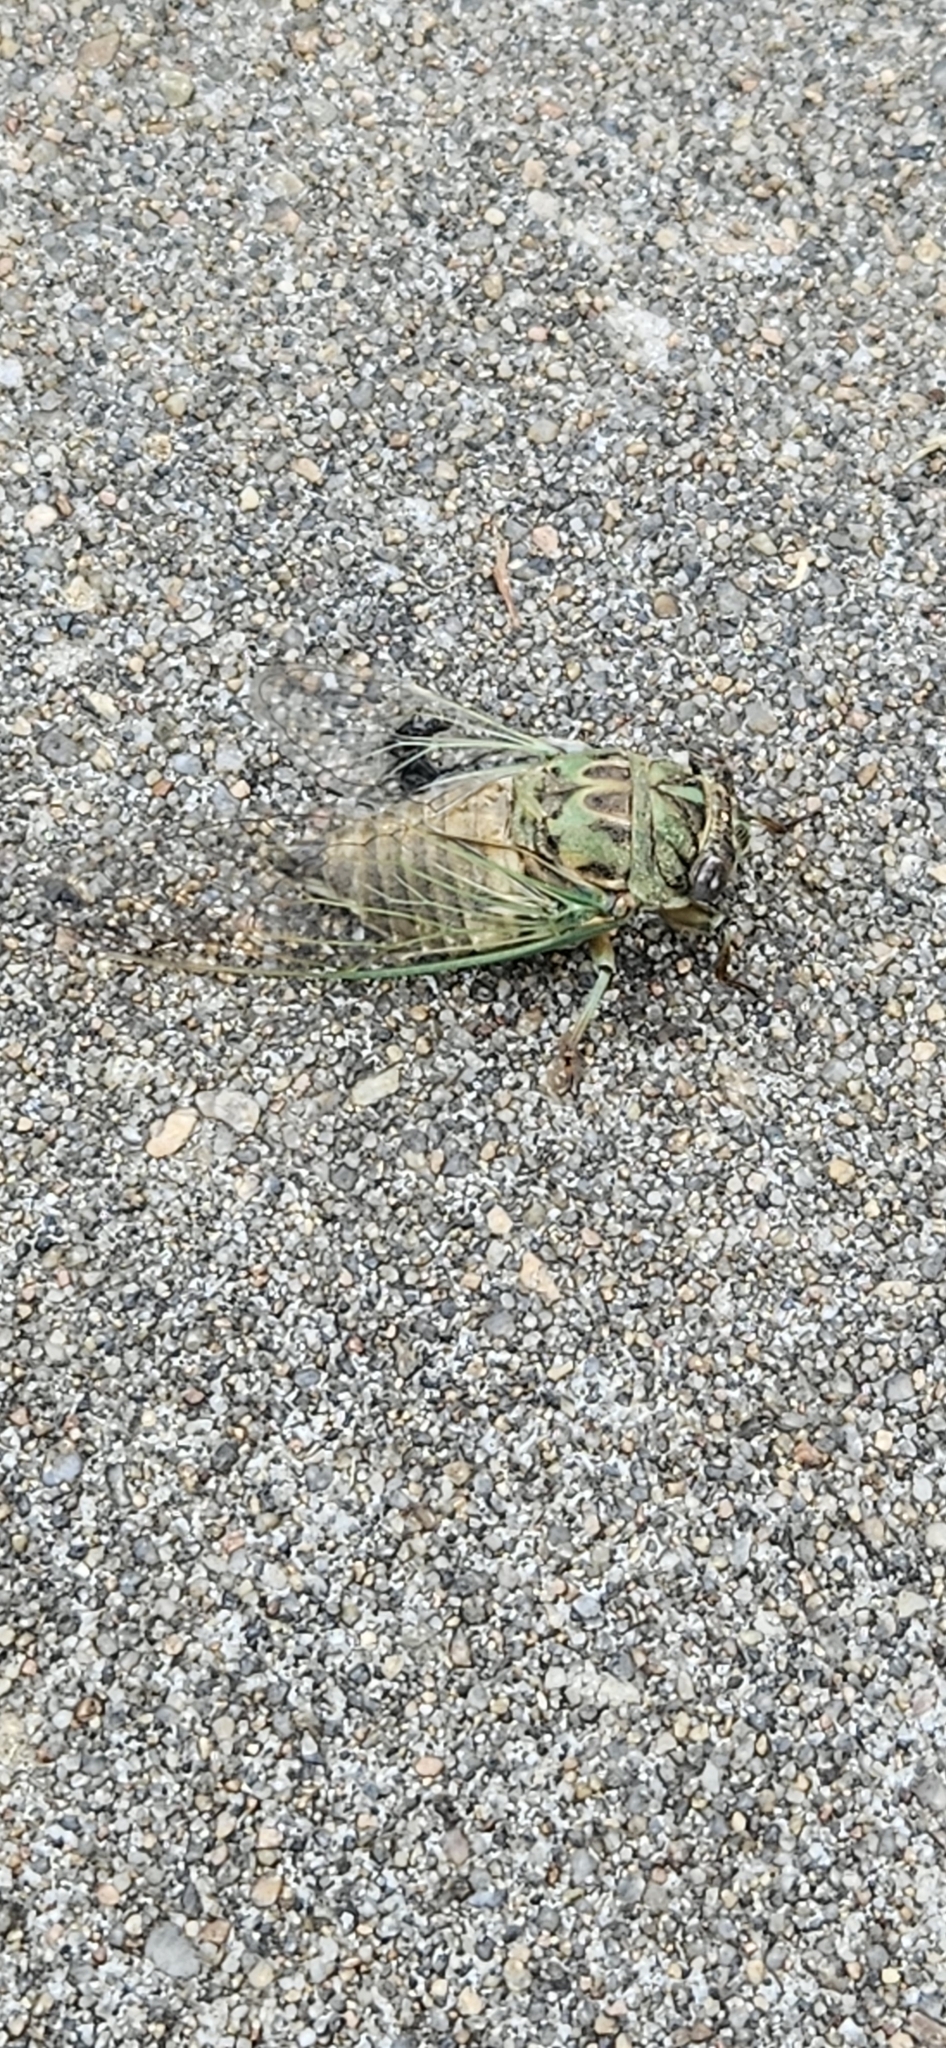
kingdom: Animalia
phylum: Arthropoda
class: Insecta
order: Hemiptera
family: Cicadidae
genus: Neotibicen
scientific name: Neotibicen pruinosus
